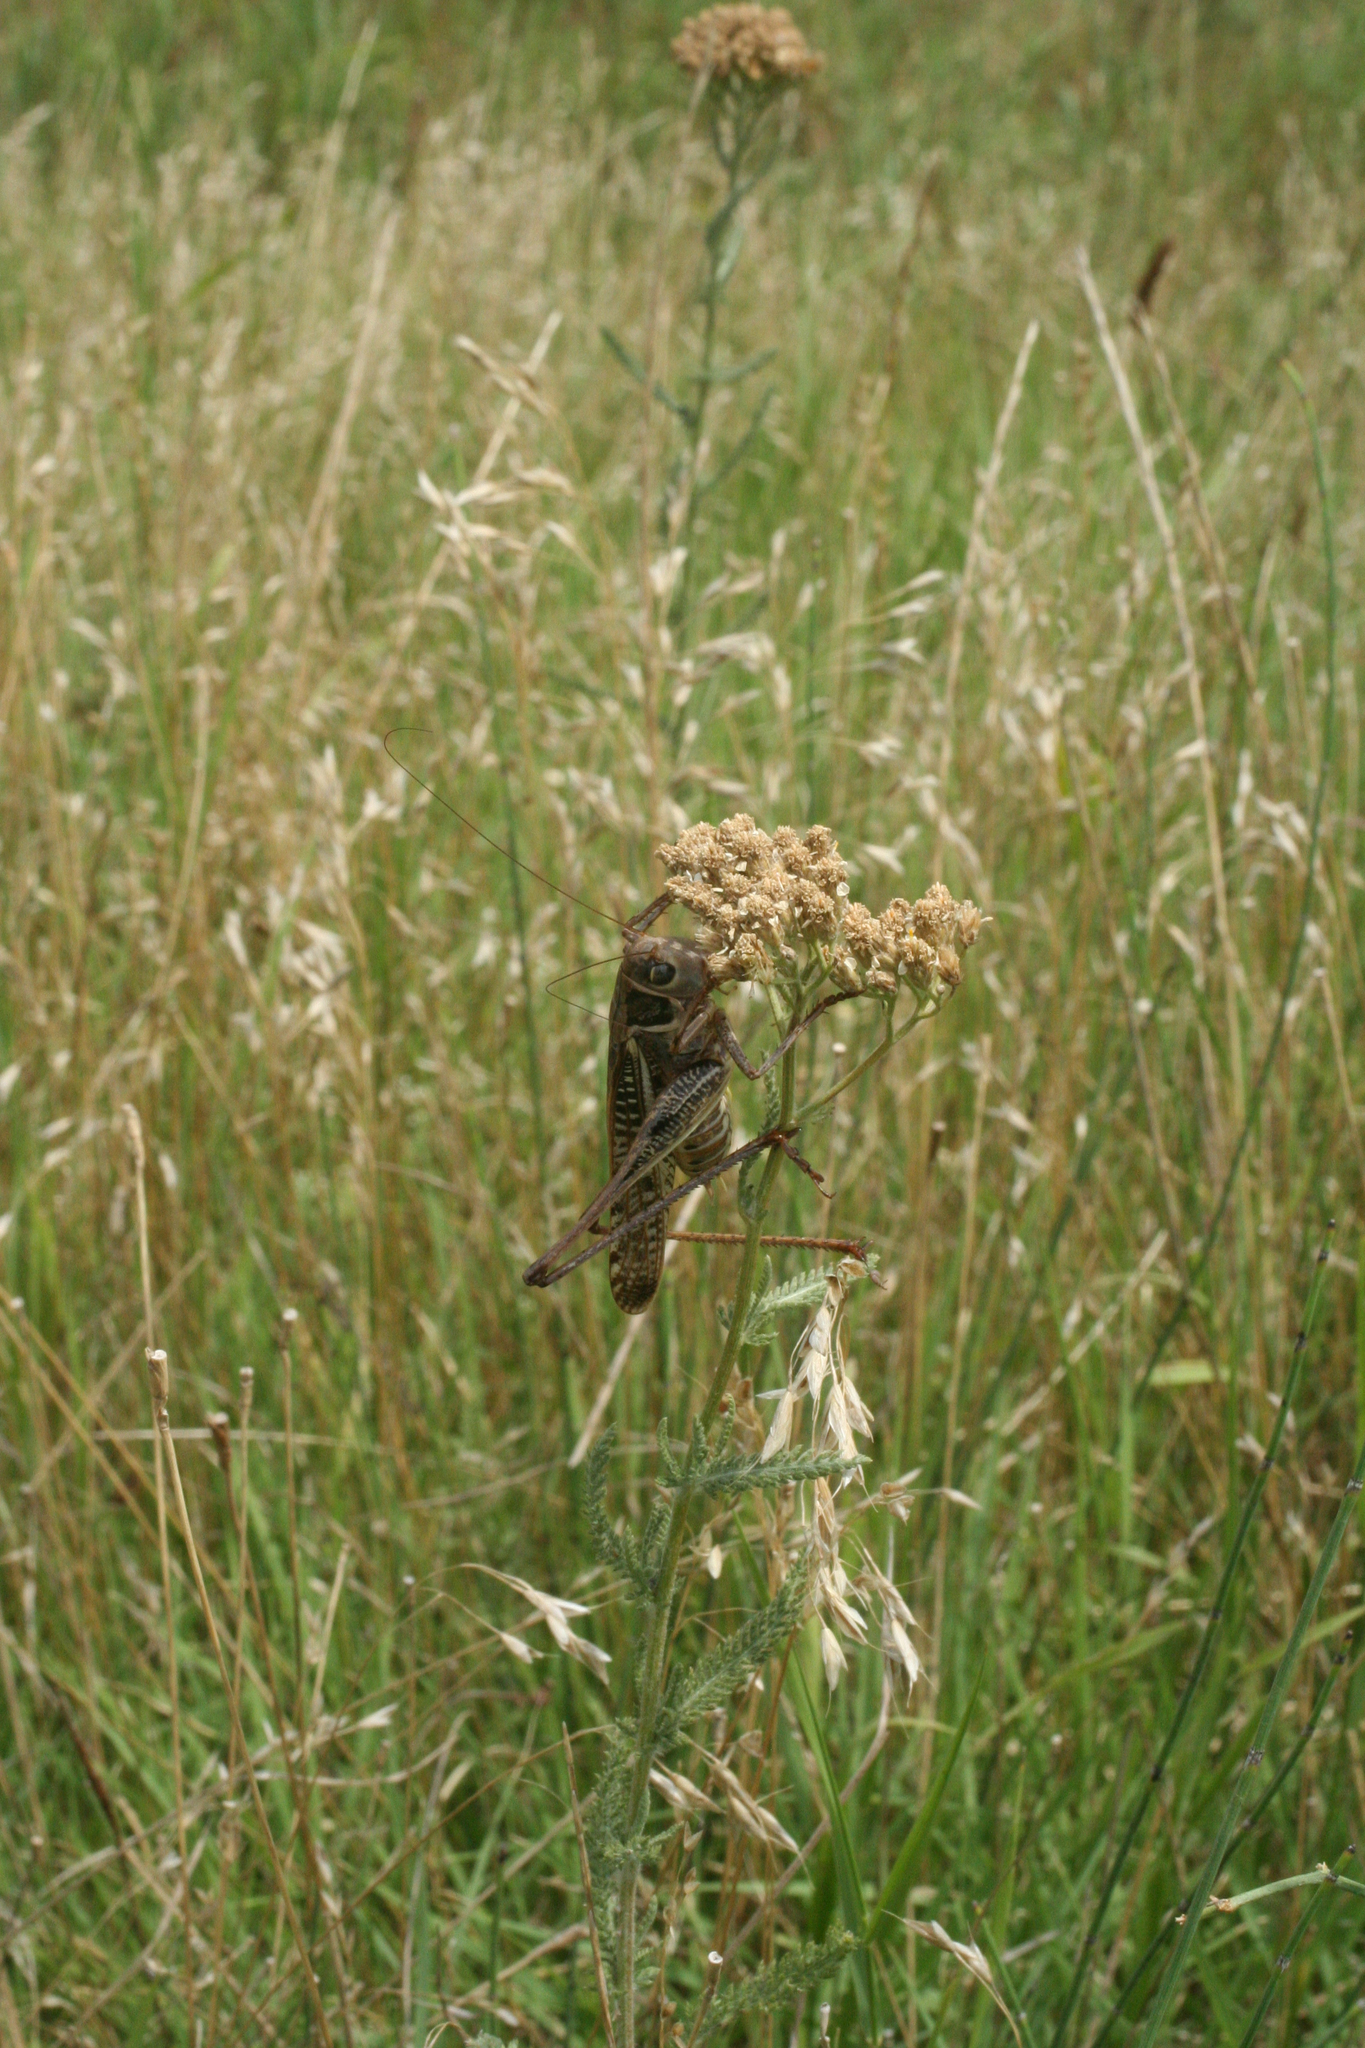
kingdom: Animalia
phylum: Arthropoda
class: Insecta
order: Orthoptera
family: Tettigoniidae
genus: Decticus
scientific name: Decticus albifrons
